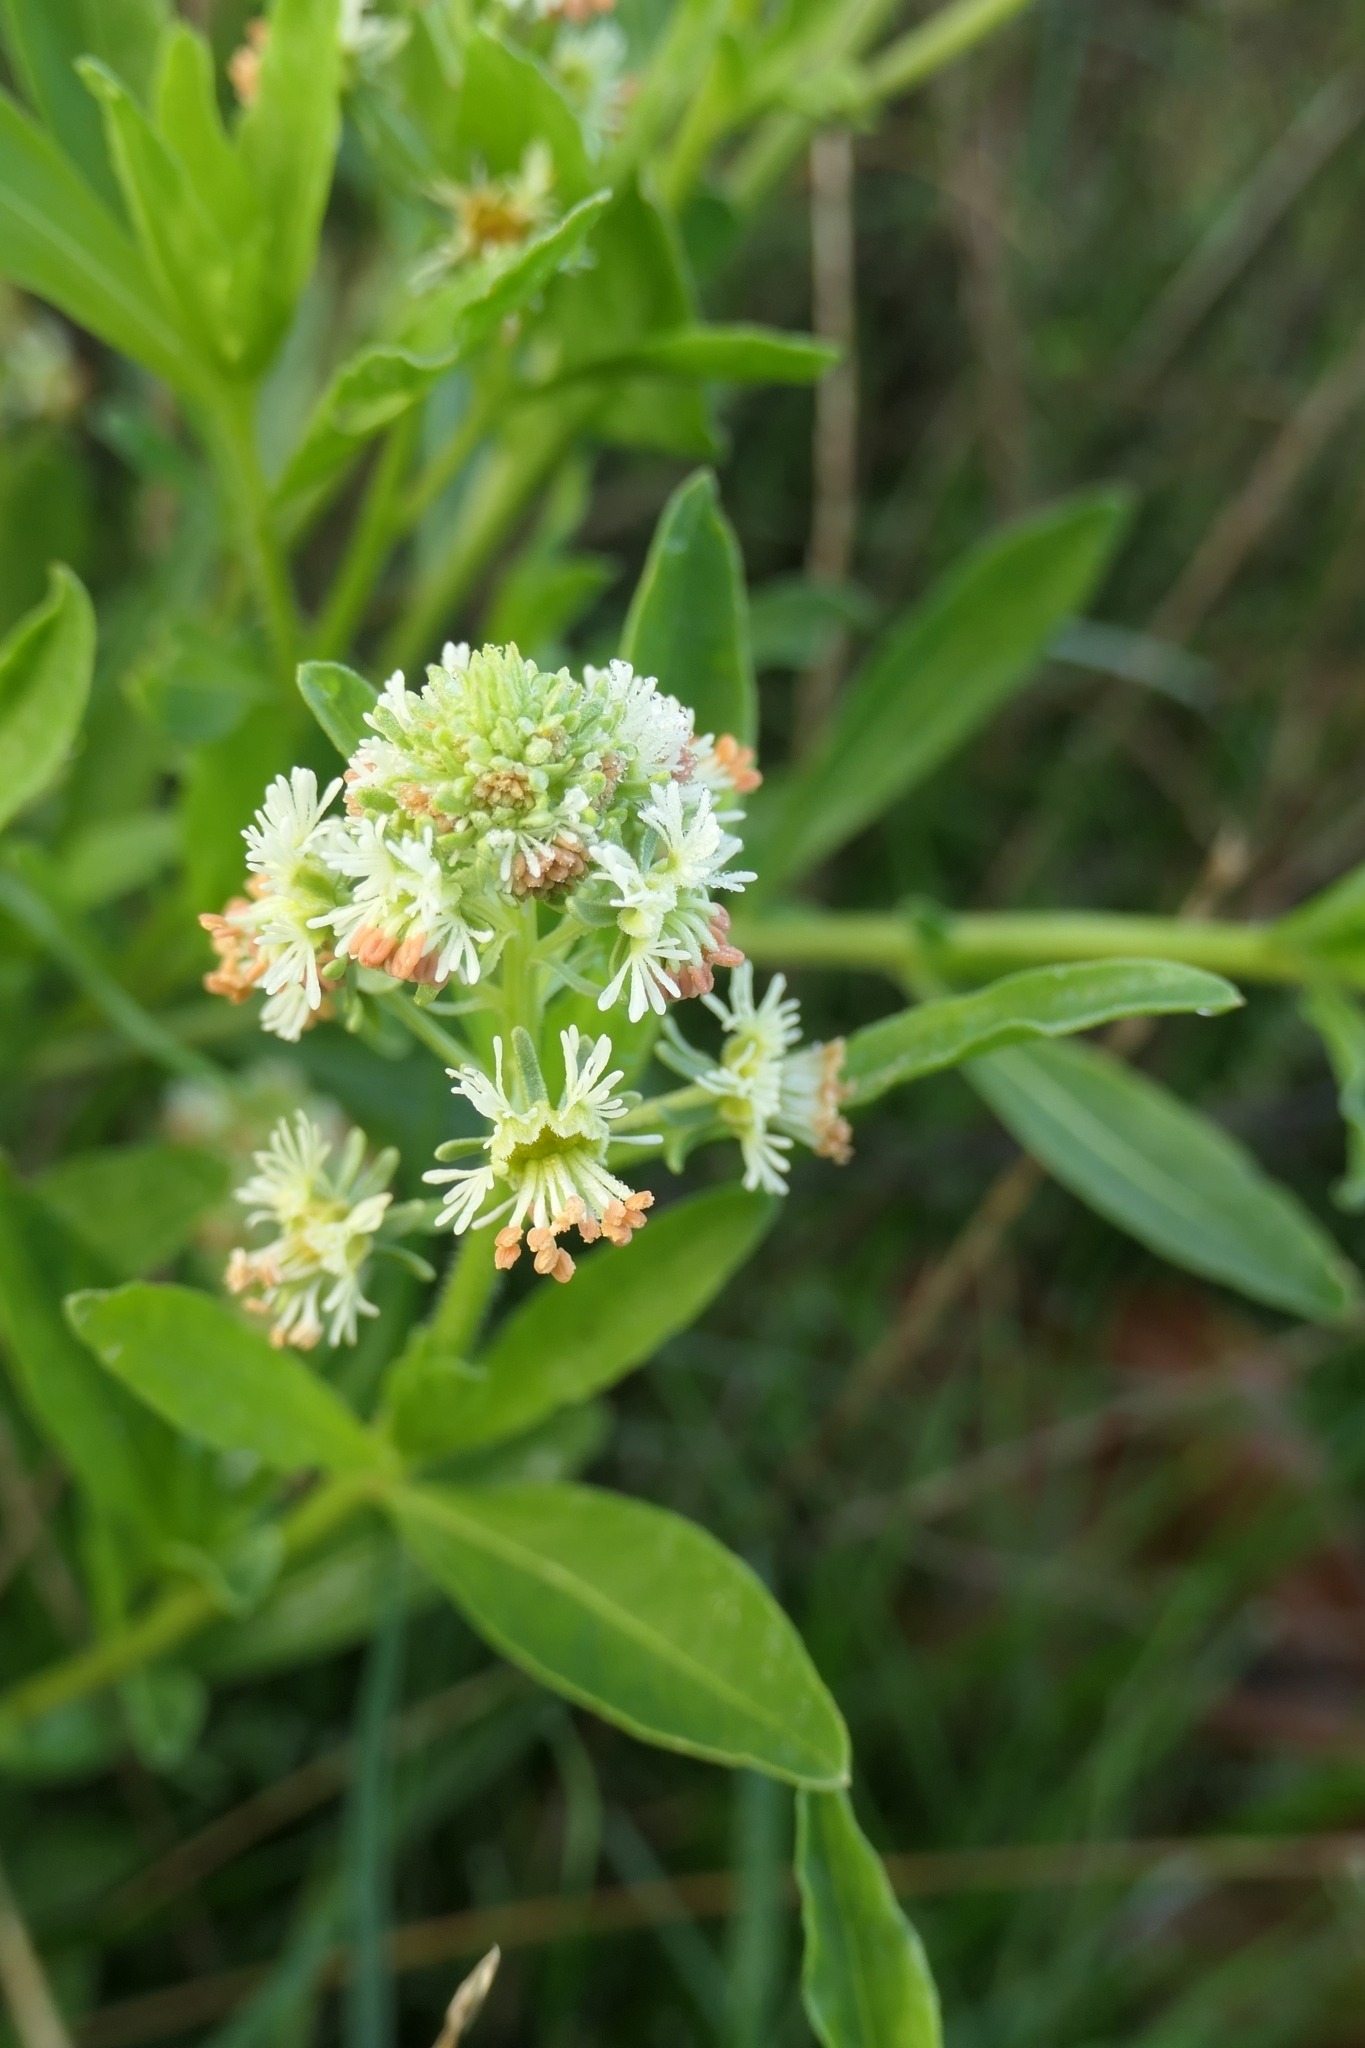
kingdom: Plantae
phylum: Tracheophyta
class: Magnoliopsida
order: Brassicales
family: Resedaceae
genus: Reseda
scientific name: Reseda odorata
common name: Garden mignonette
